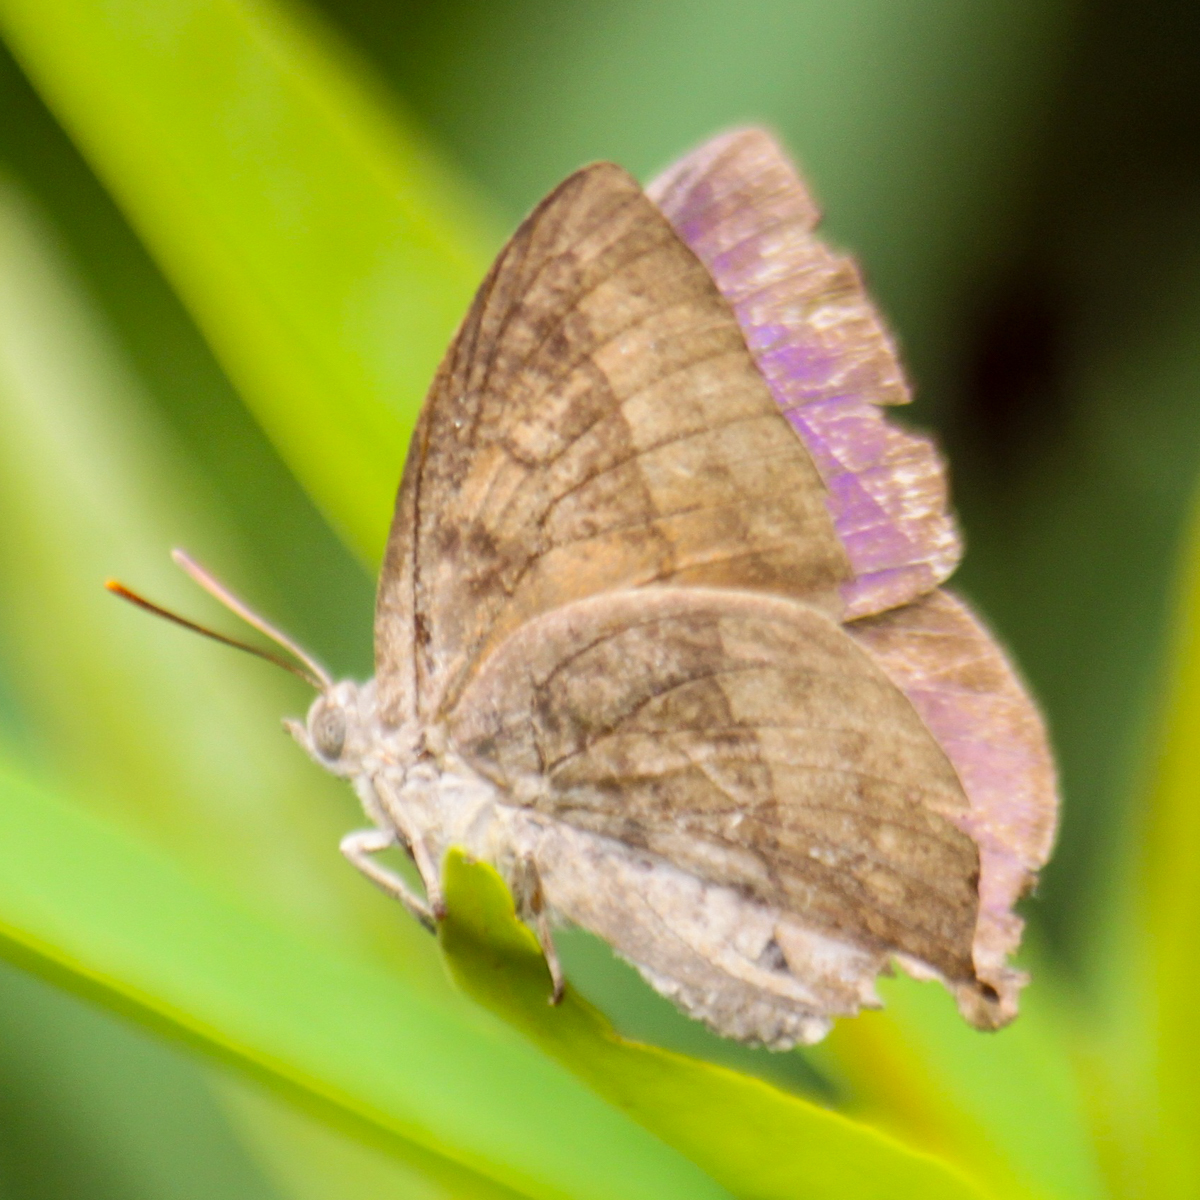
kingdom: Animalia
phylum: Arthropoda
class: Insecta
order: Lepidoptera
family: Lycaenidae
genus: Amblypodia
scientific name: Amblypodia anita
